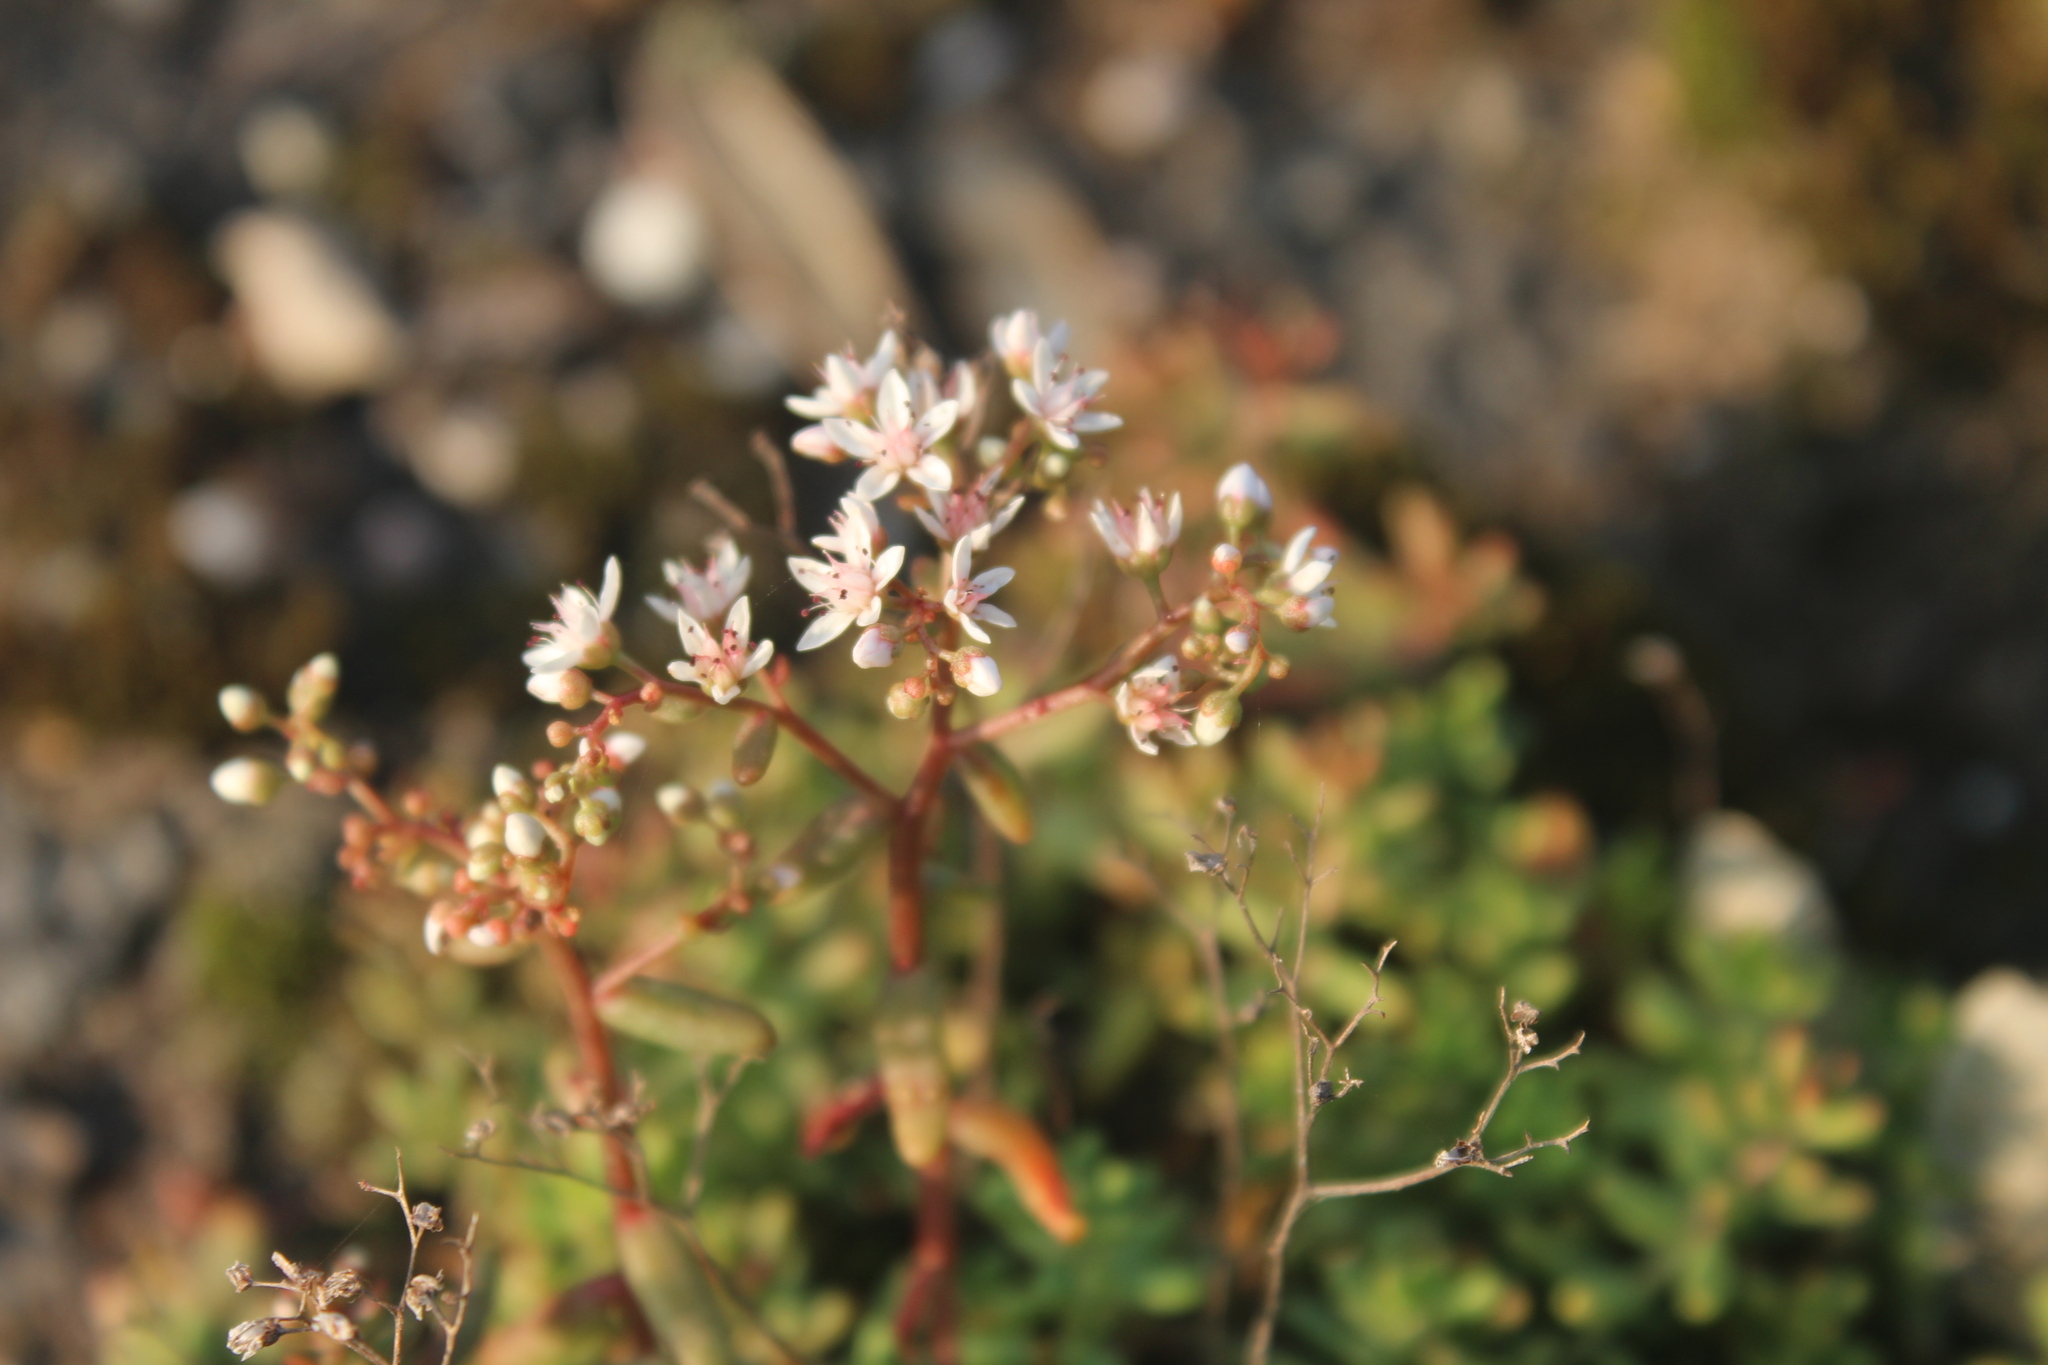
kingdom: Plantae
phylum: Tracheophyta
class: Magnoliopsida
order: Saxifragales
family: Crassulaceae
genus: Sedum
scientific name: Sedum album
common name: White stonecrop
